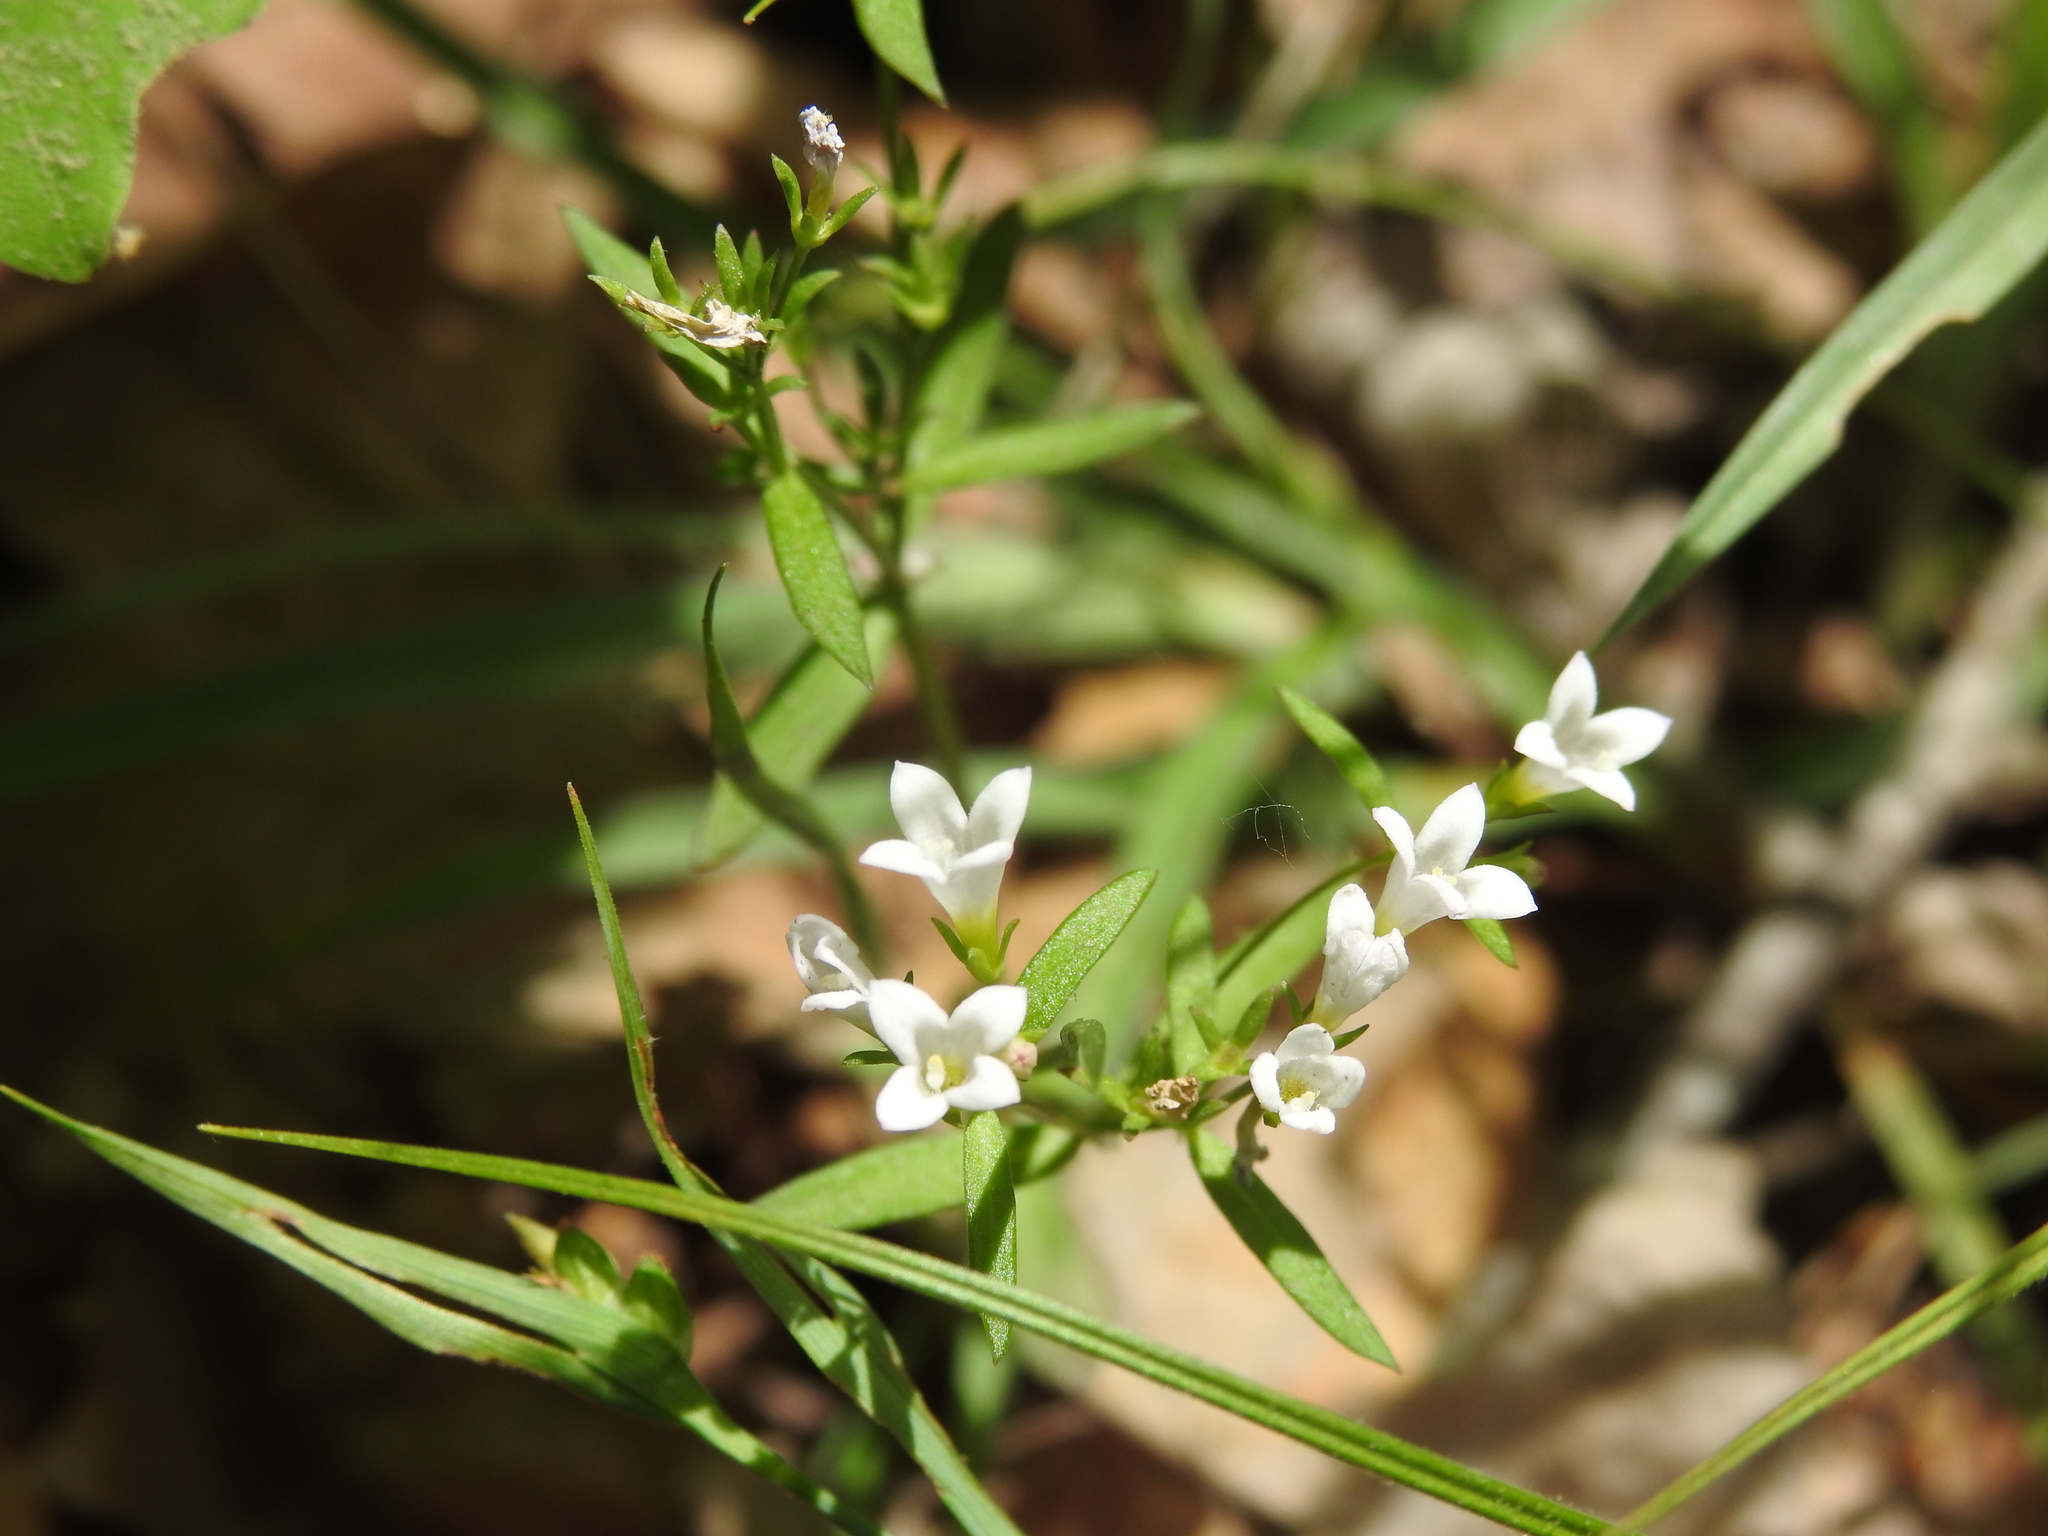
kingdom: Plantae
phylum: Tracheophyta
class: Magnoliopsida
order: Gentianales
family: Rubiaceae
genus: Houstonia
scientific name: Houstonia longifolia
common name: Long-leaved bluets
